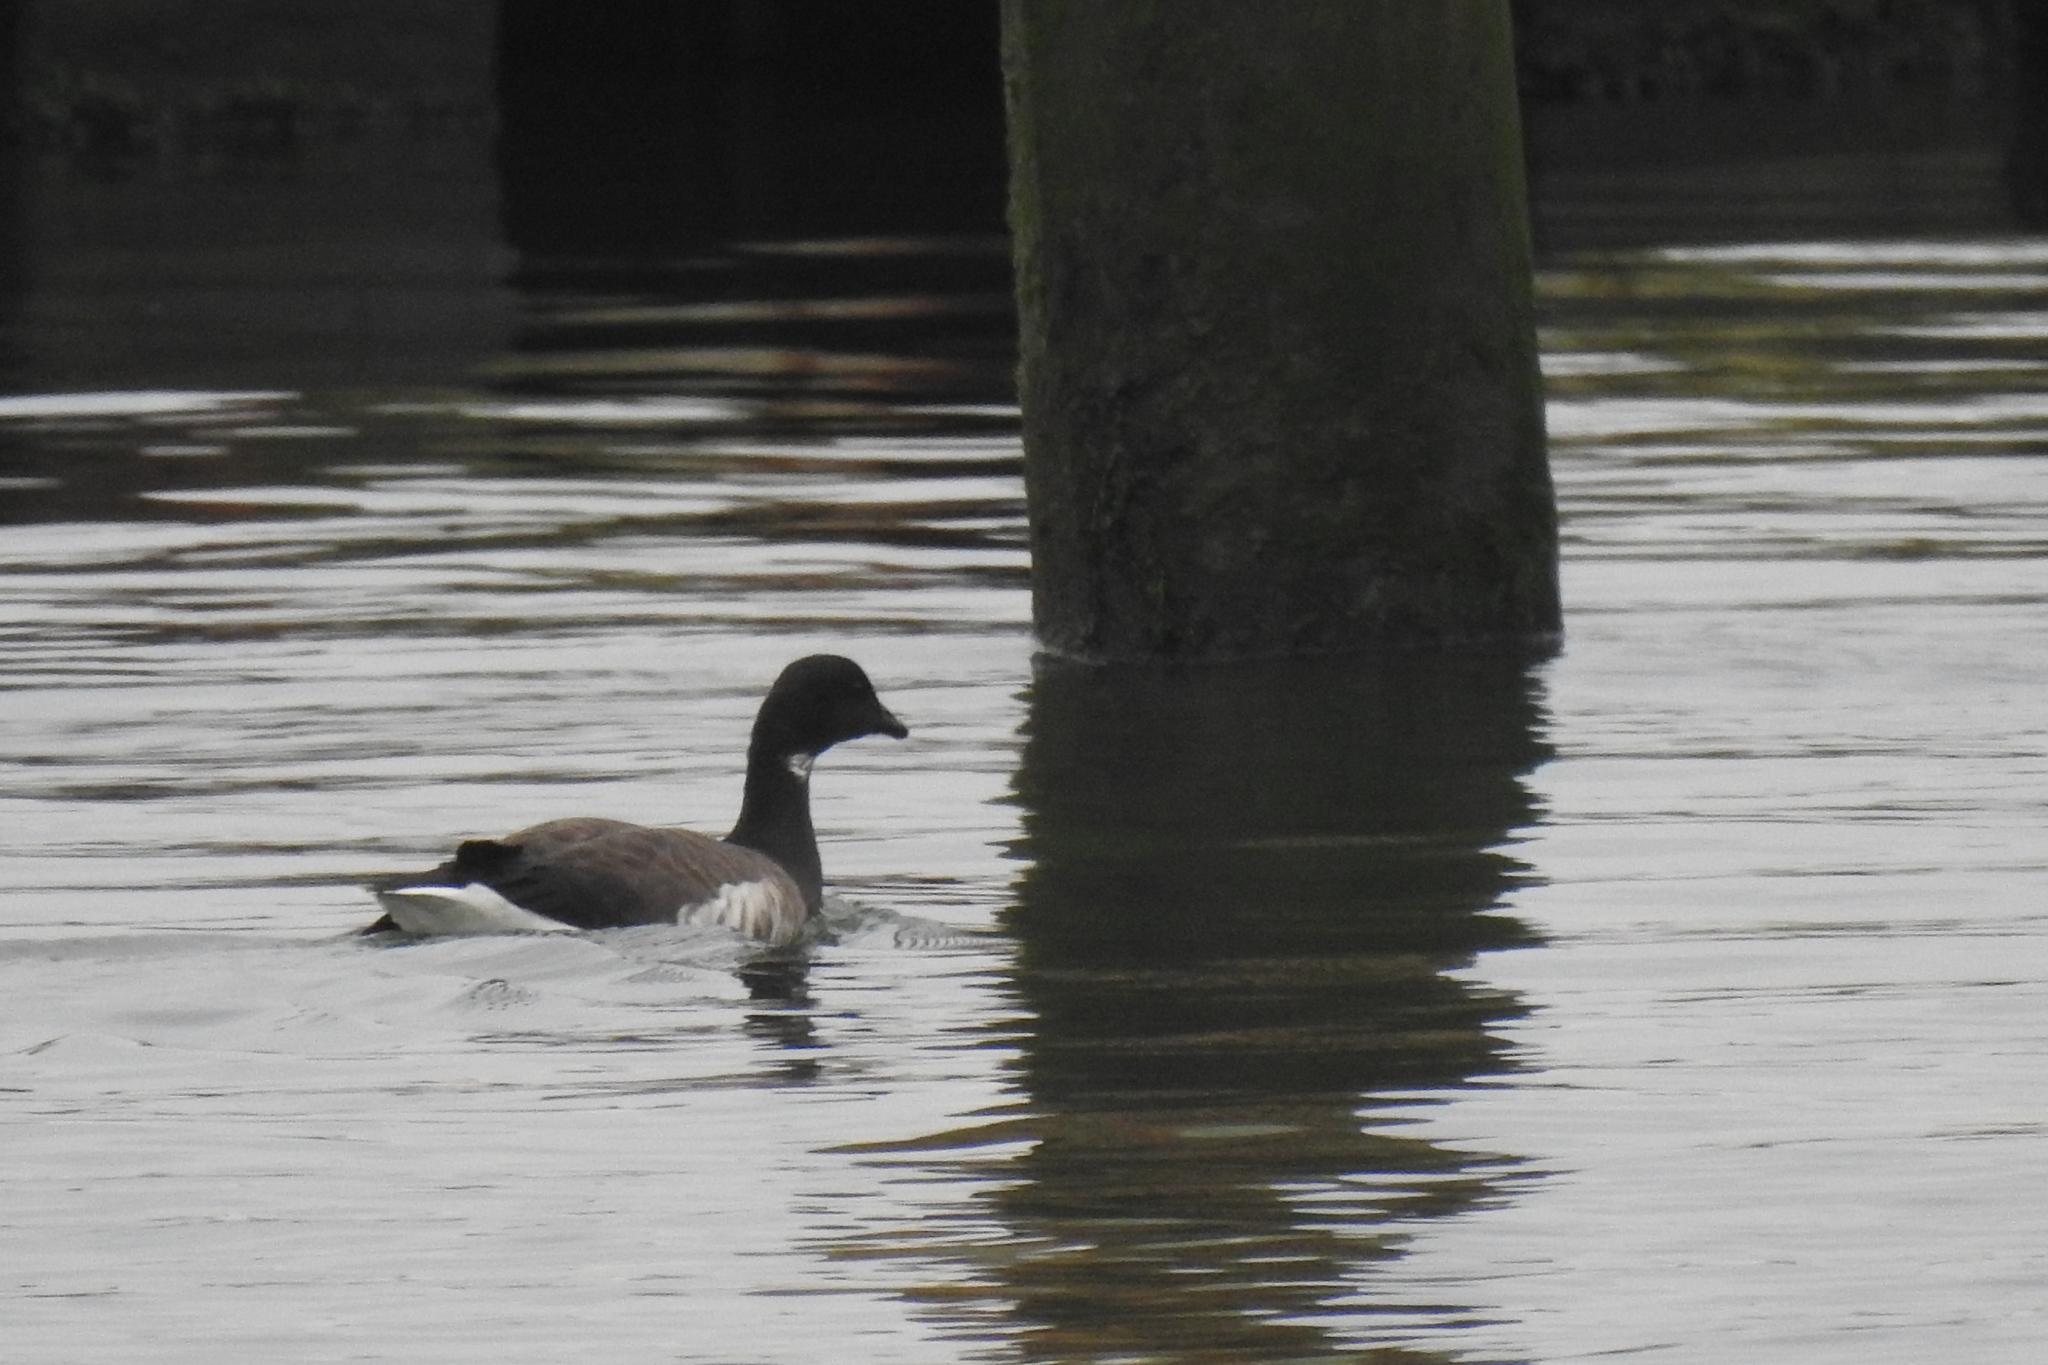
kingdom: Animalia
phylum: Chordata
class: Aves
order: Anseriformes
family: Anatidae
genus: Branta
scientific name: Branta bernicla
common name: Brant goose
